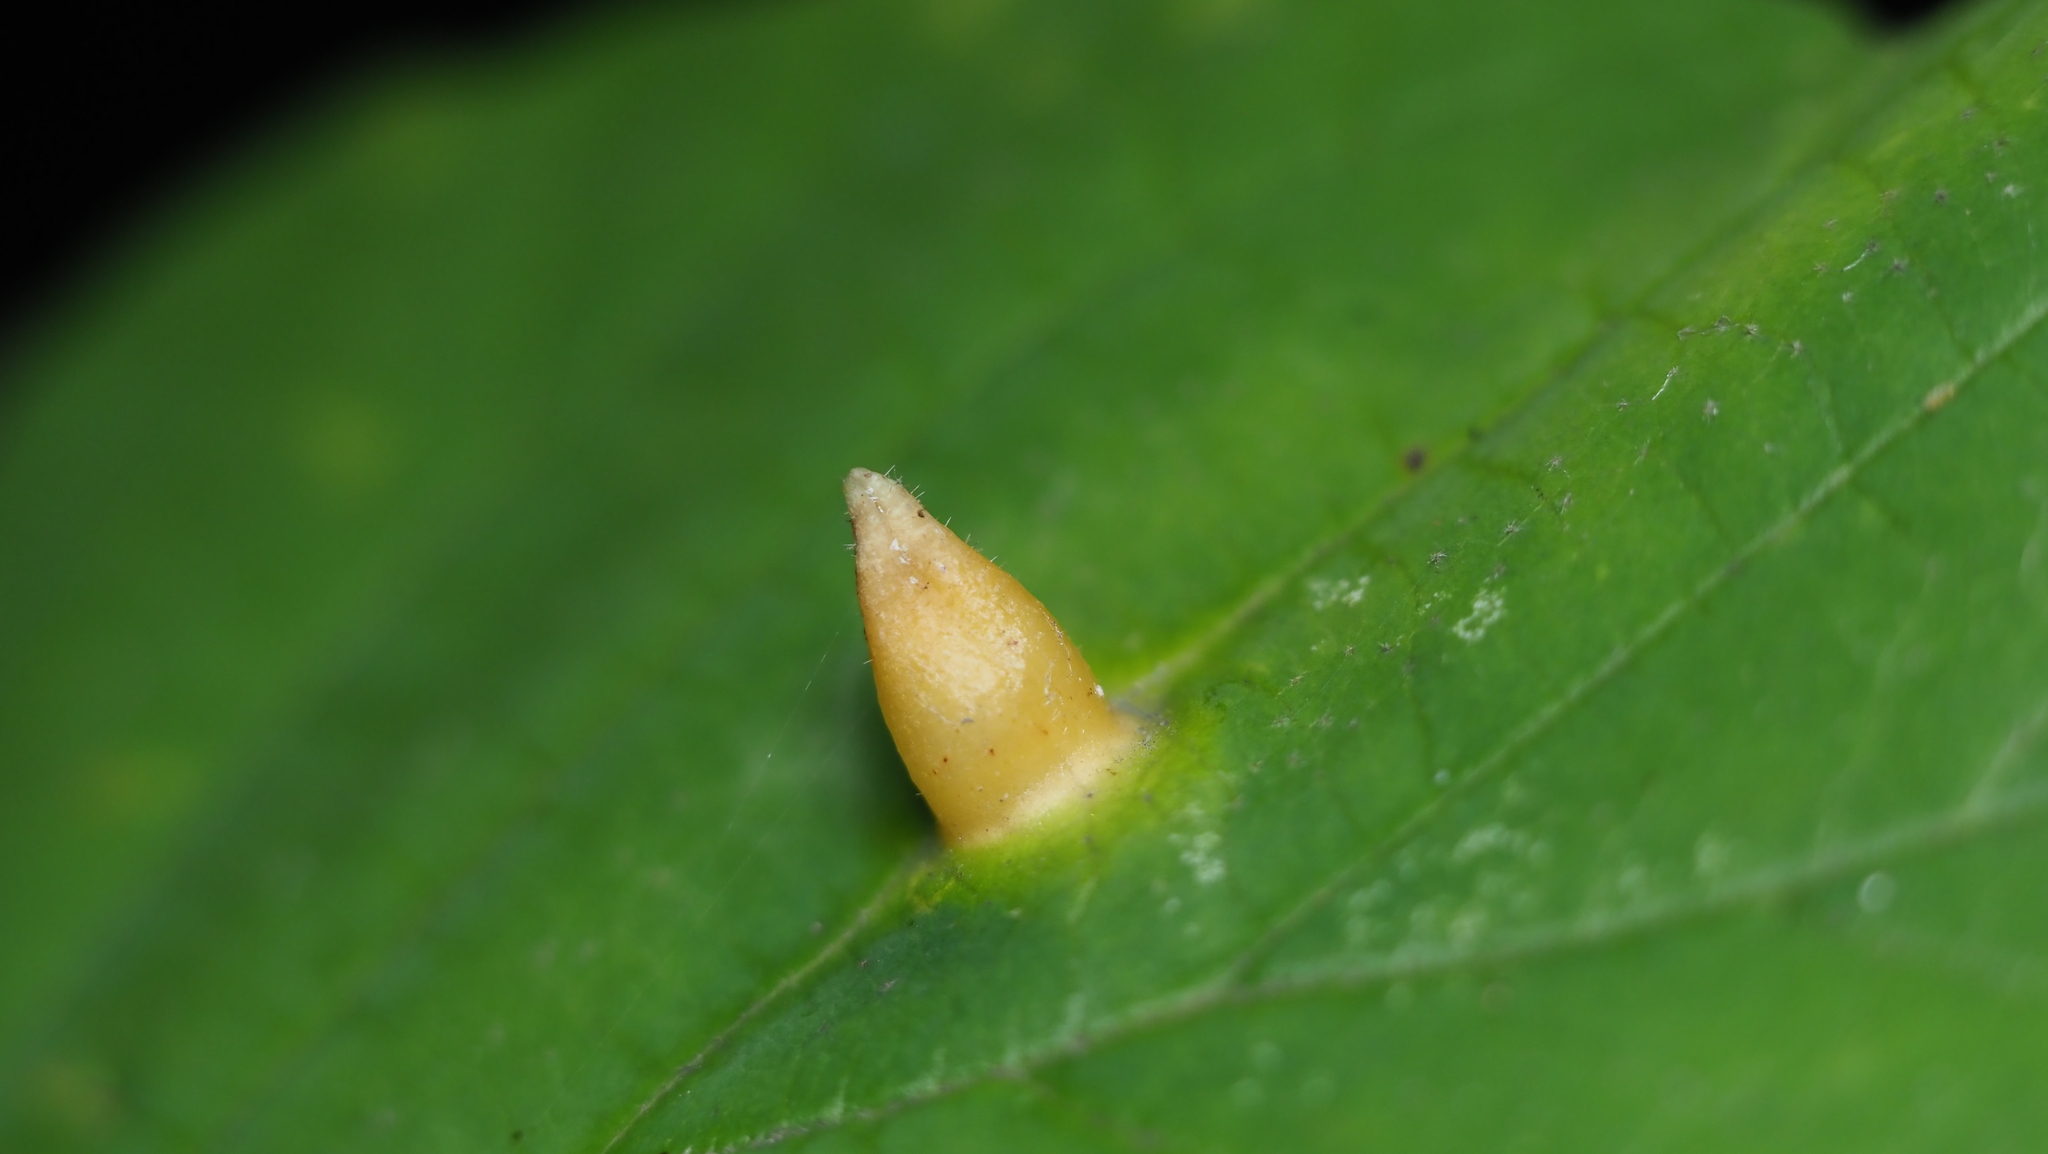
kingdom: Animalia
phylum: Arthropoda
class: Insecta
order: Hemiptera
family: Aphididae
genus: Hormaphis
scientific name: Hormaphis hamamelidis
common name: Witch-hazel cone gall aphid
